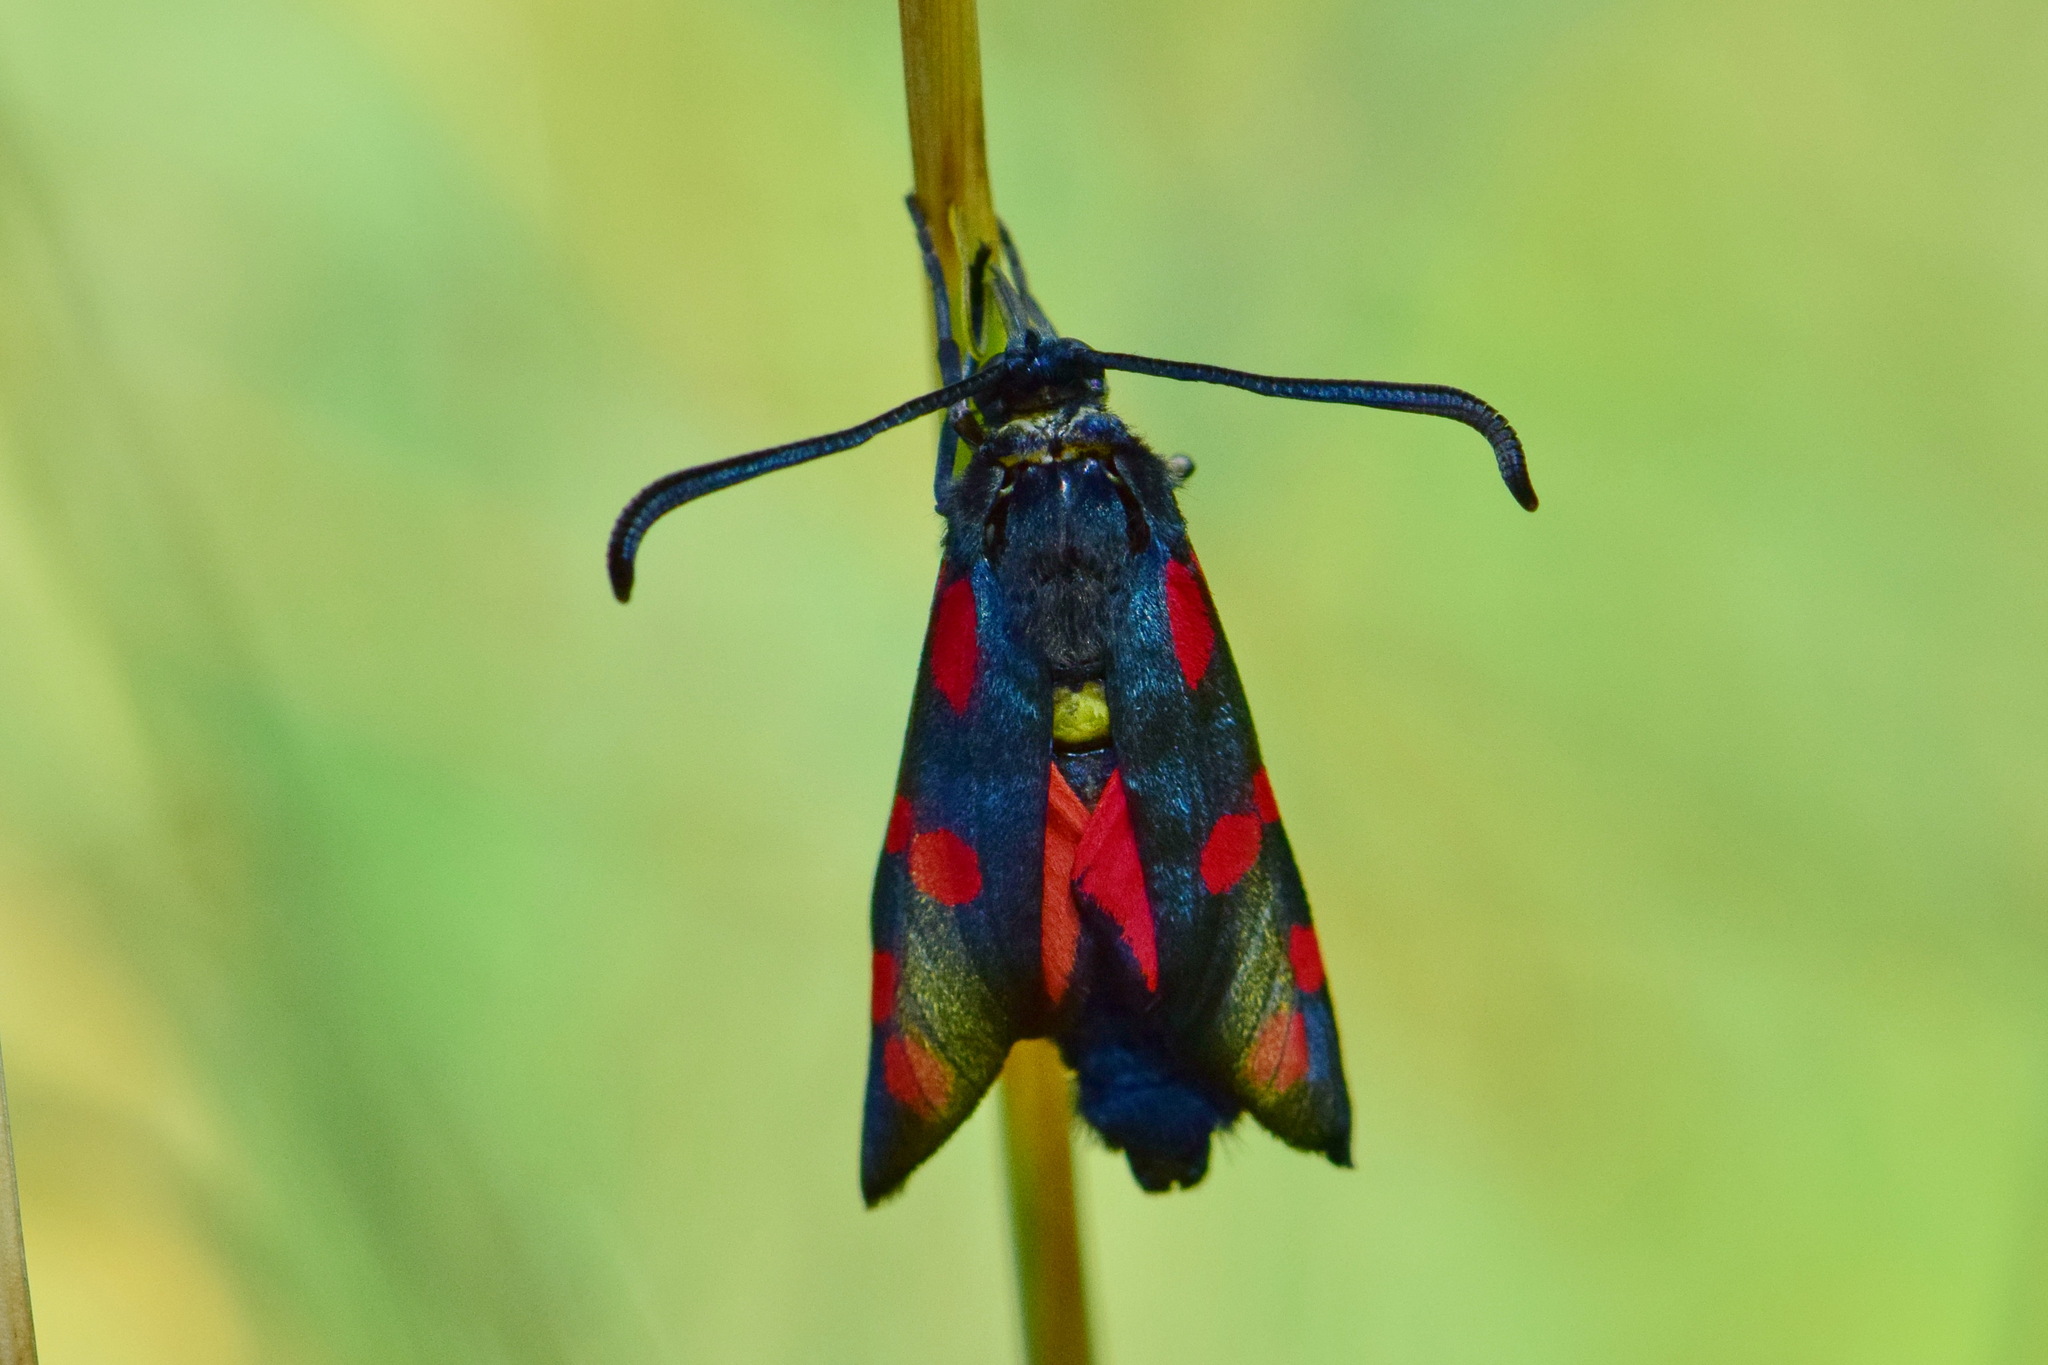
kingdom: Animalia
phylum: Arthropoda
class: Insecta
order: Lepidoptera
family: Zygaenidae
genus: Zygaena
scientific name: Zygaena filipendulae
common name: Six-spot burnet
